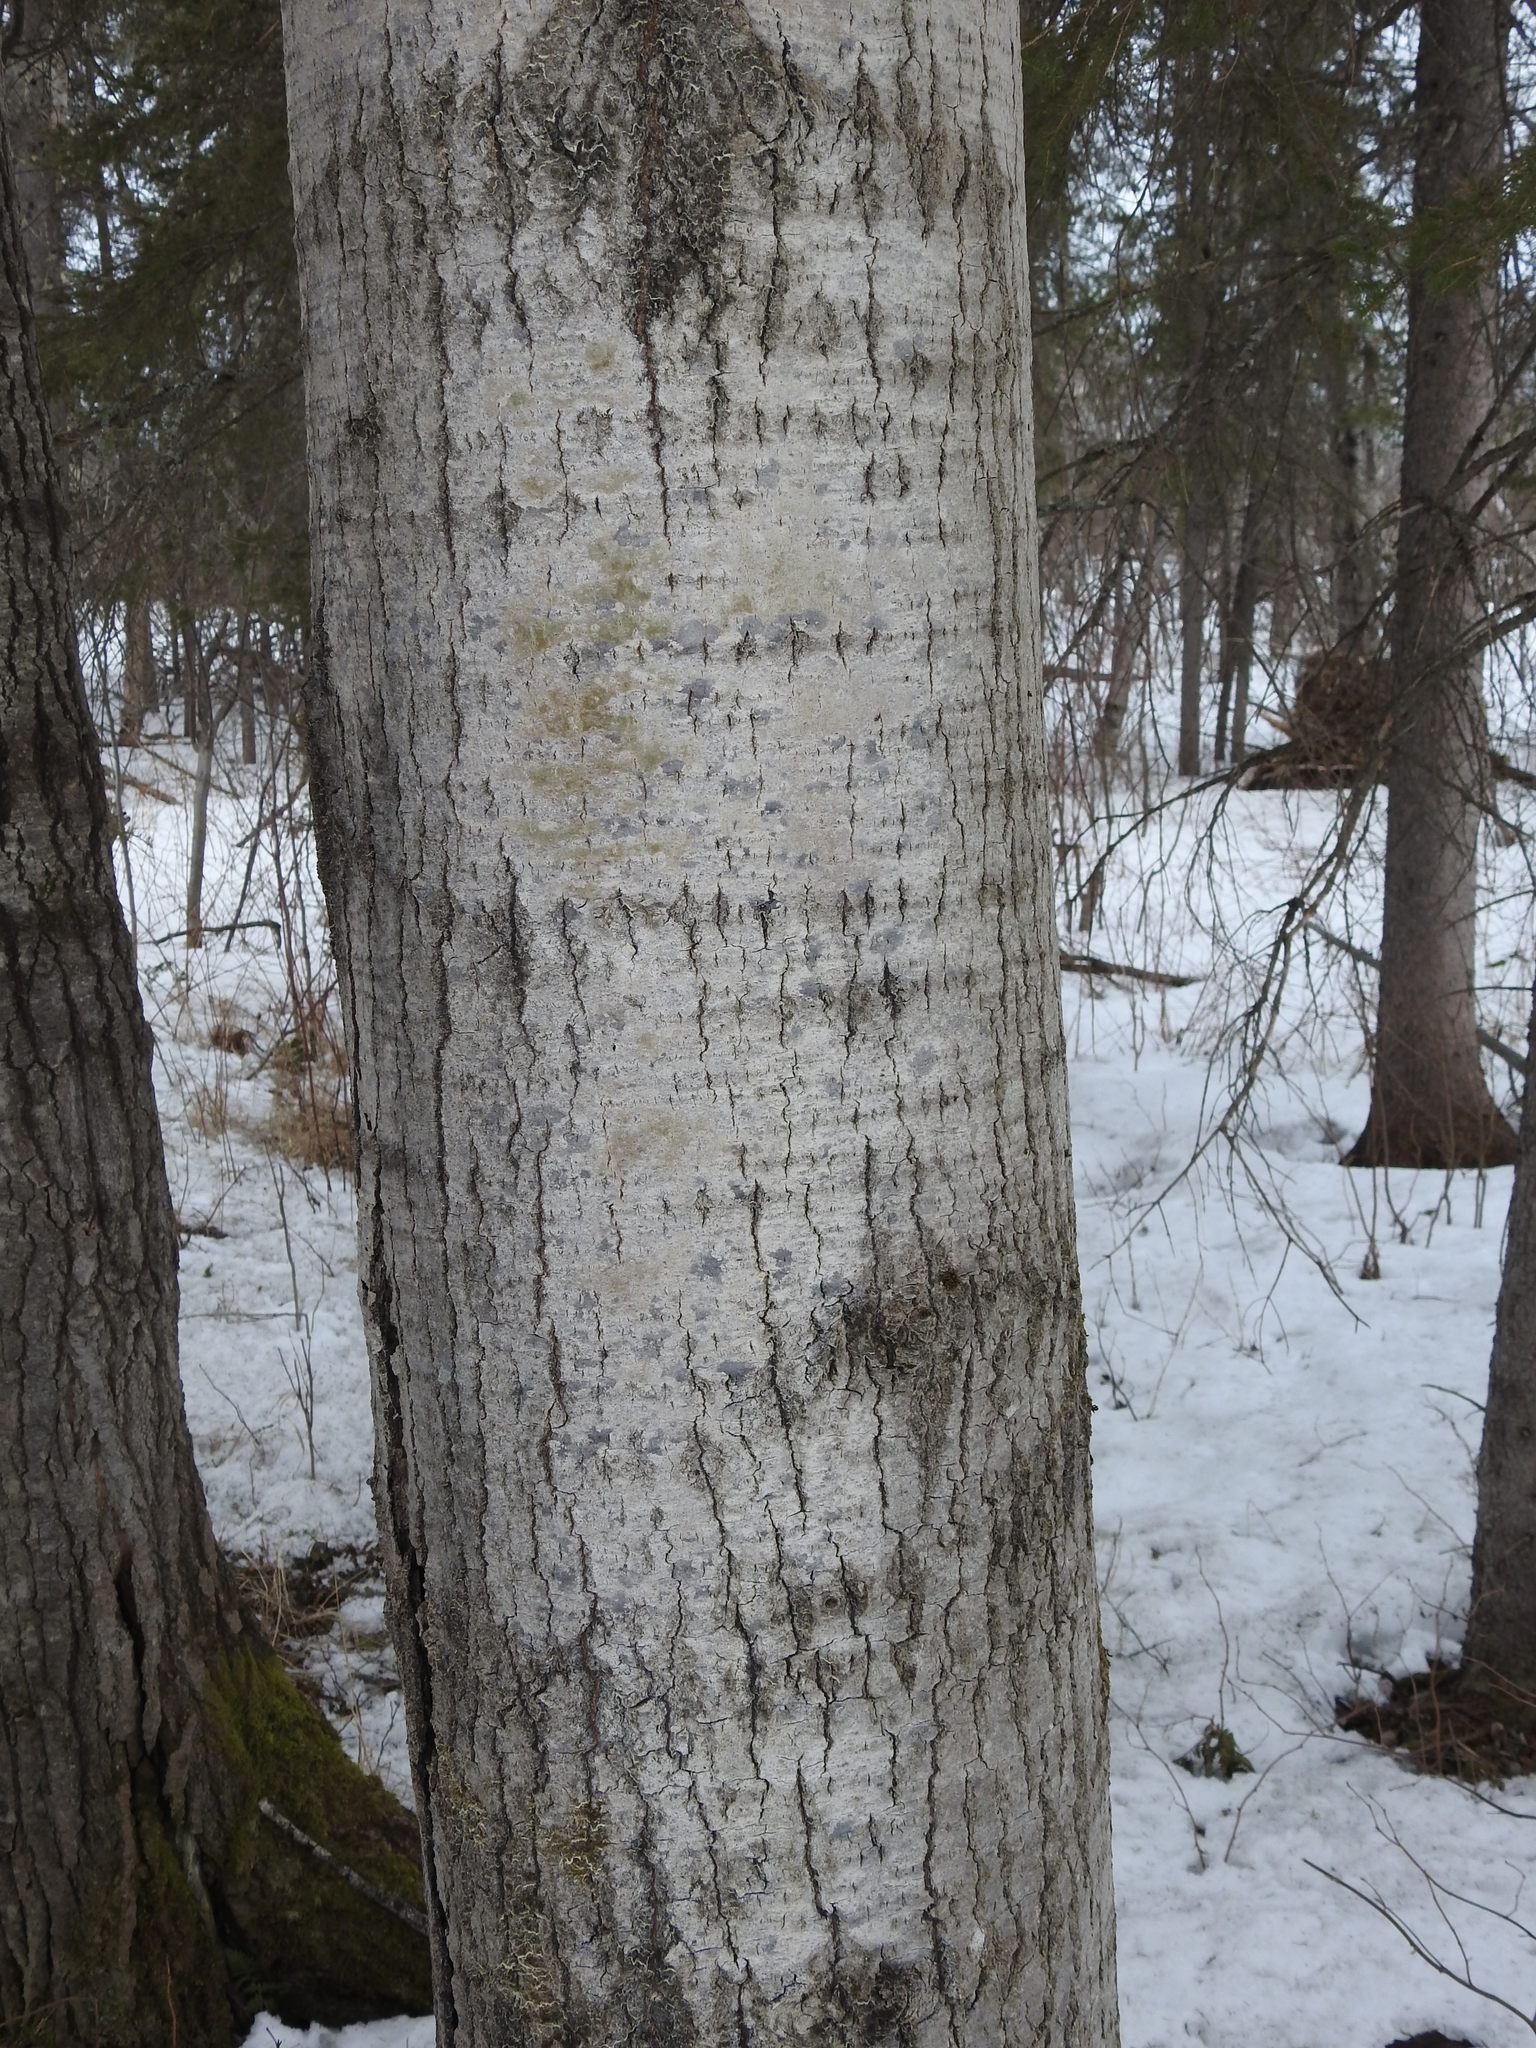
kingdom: Plantae
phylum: Tracheophyta
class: Magnoliopsida
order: Malpighiales
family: Salicaceae
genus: Populus
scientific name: Populus tremuloides
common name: Quaking aspen
